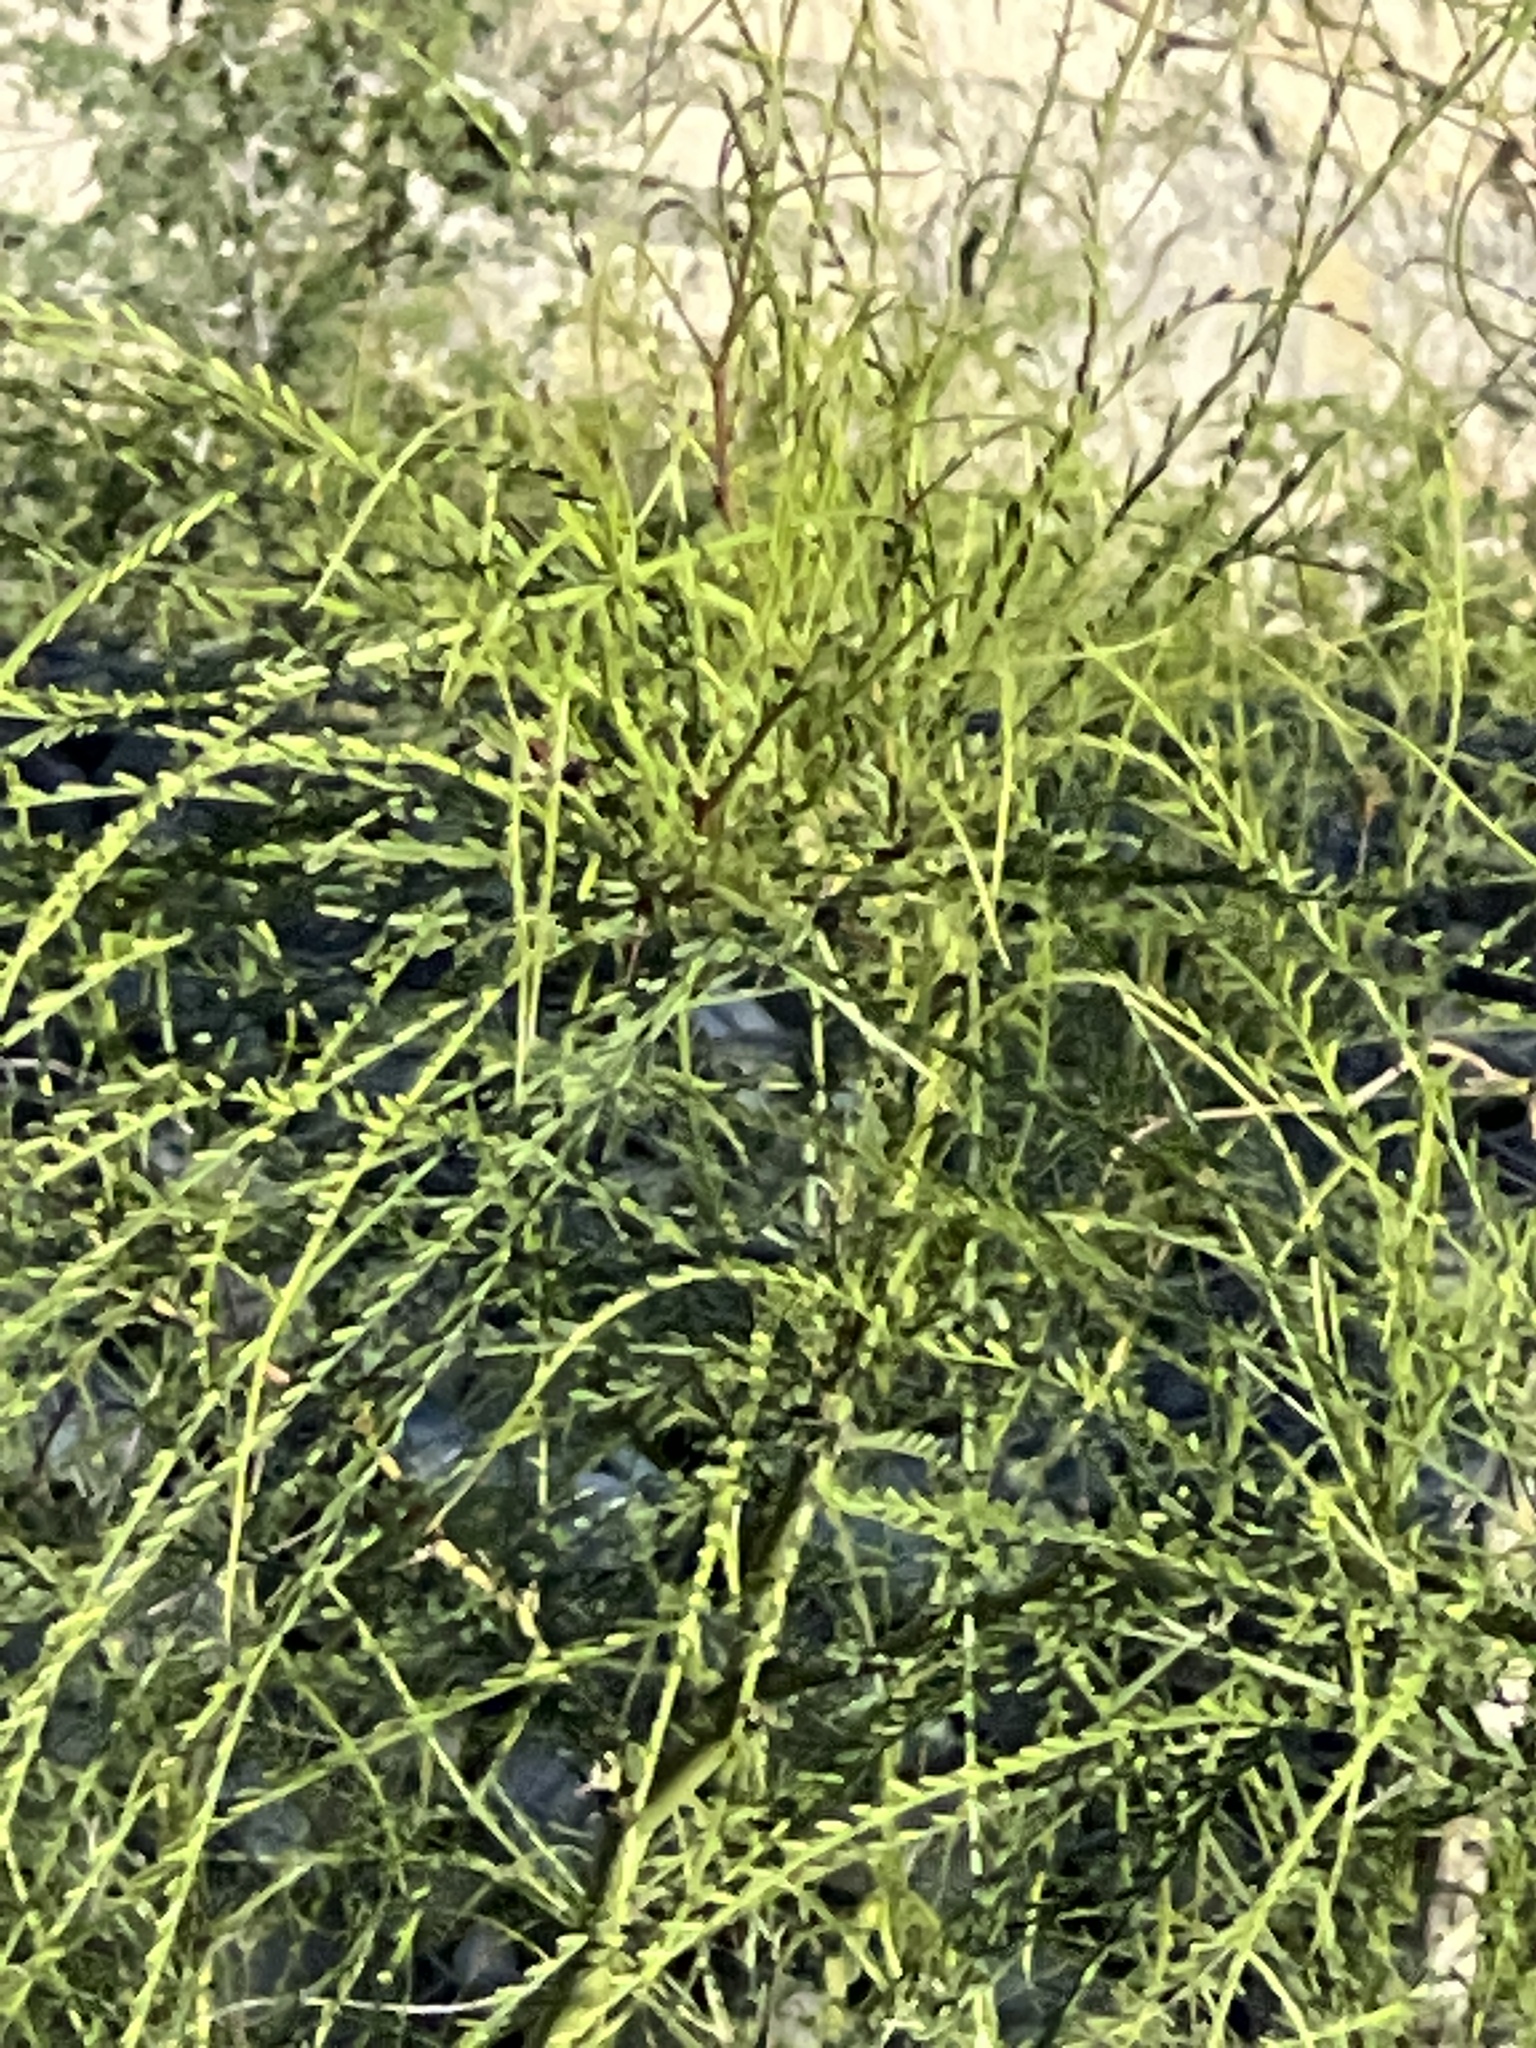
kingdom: Plantae
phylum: Tracheophyta
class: Magnoliopsida
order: Fabales
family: Fabaceae
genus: Parkinsonia
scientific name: Parkinsonia aculeata
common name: Jerusalem thorn
